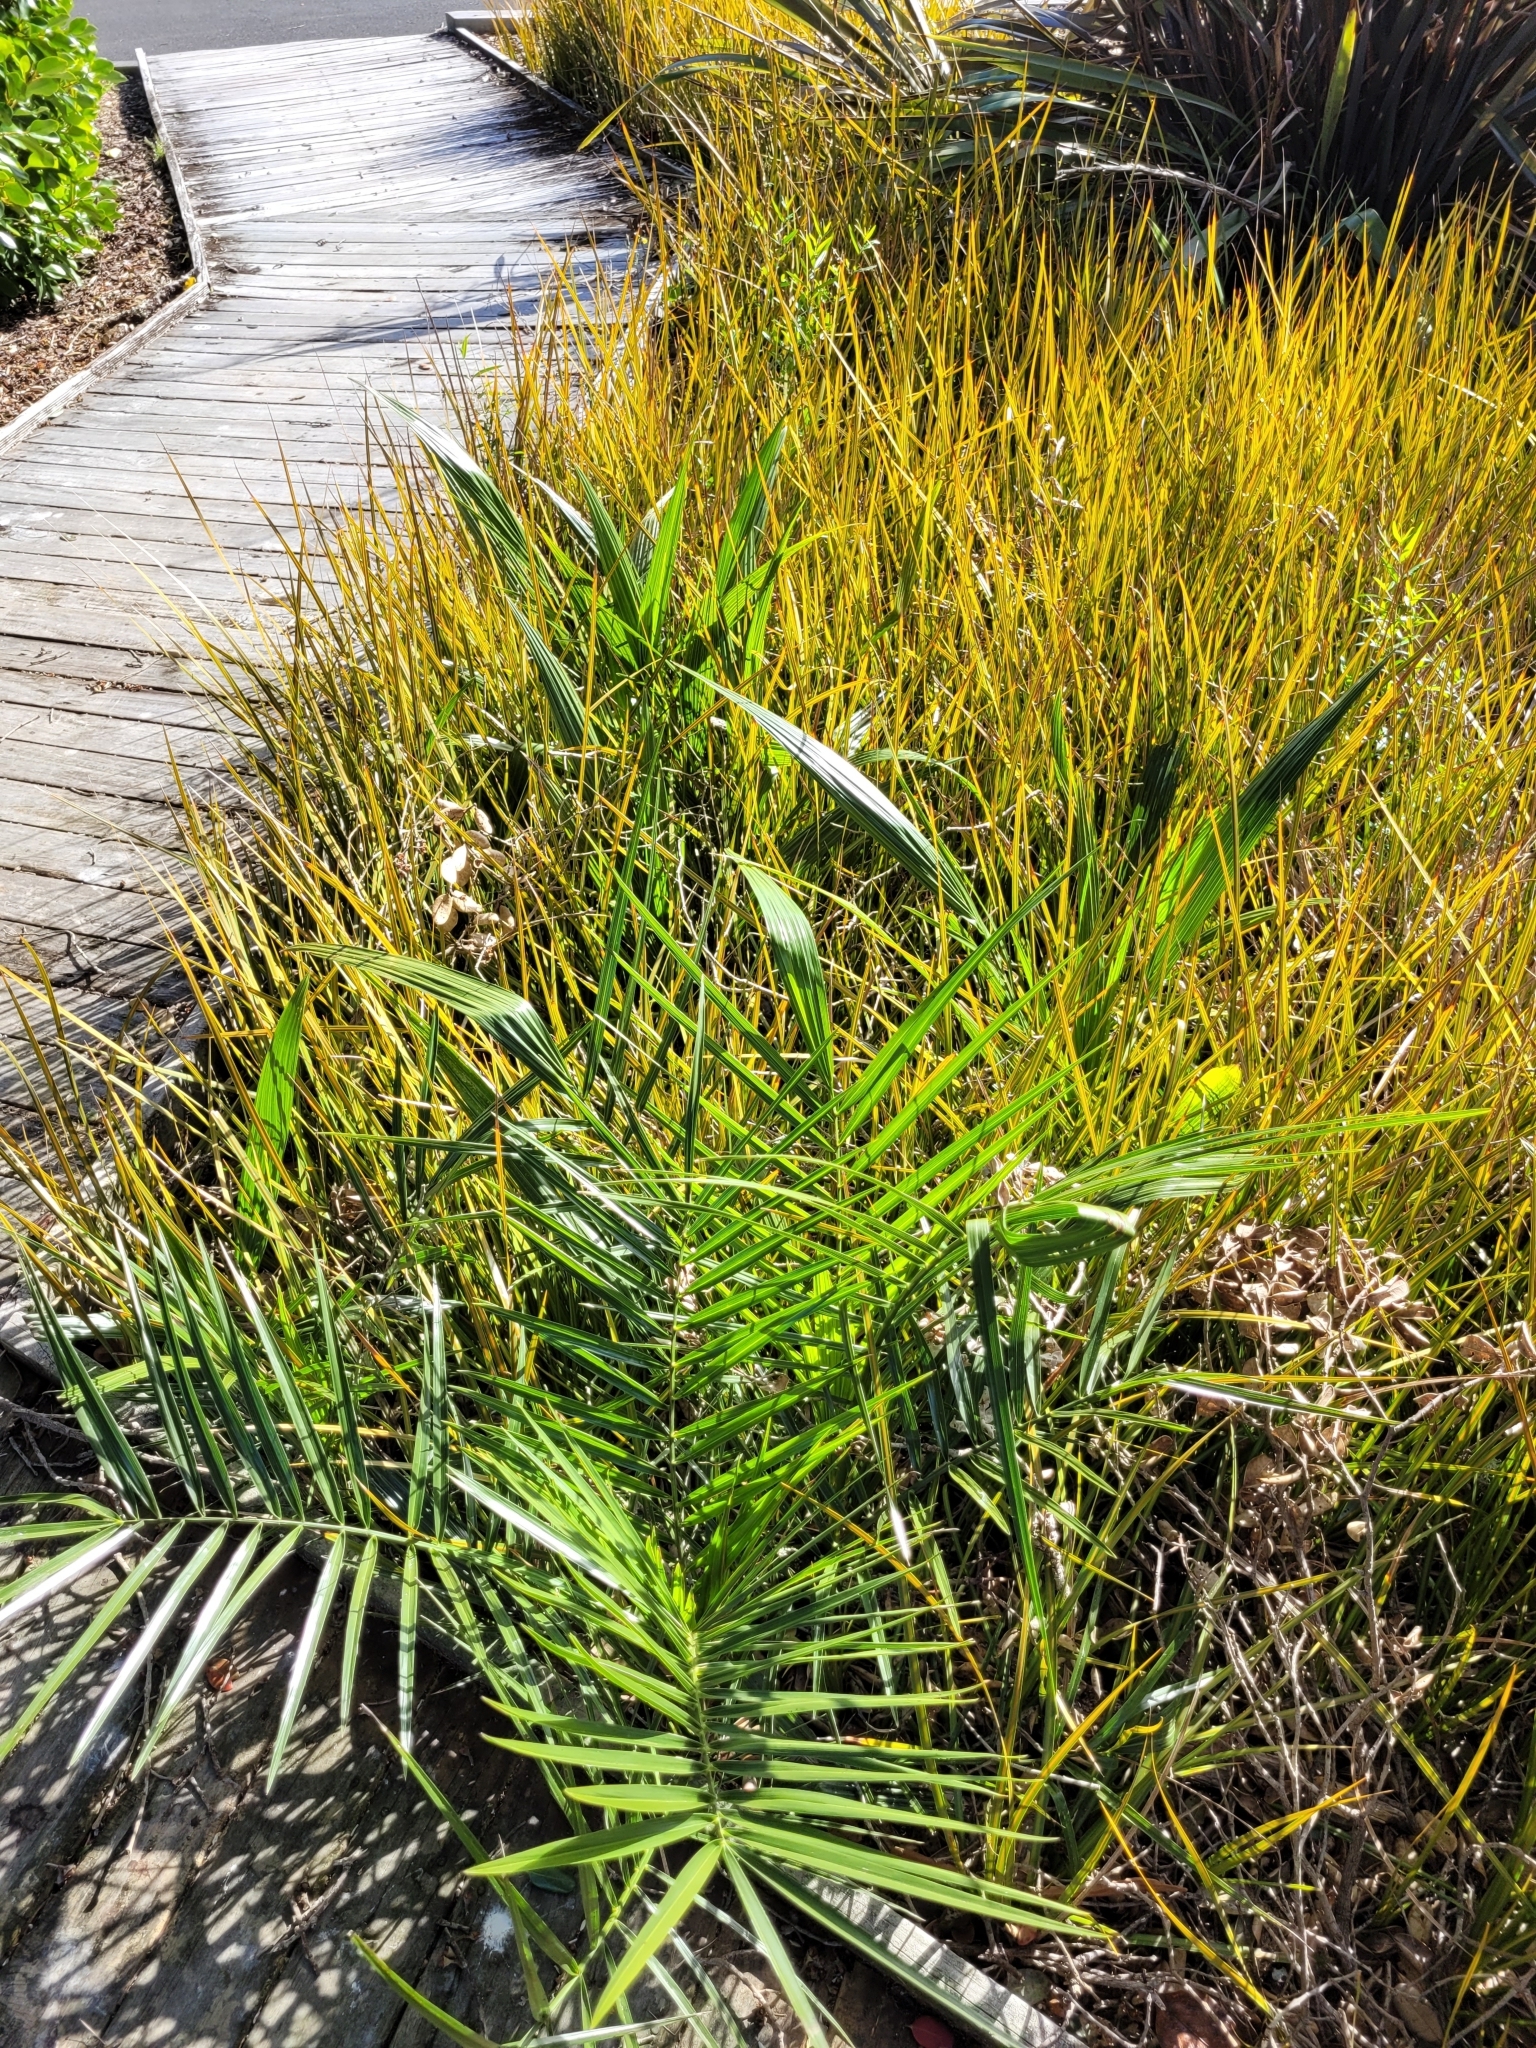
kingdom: Plantae
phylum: Tracheophyta
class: Liliopsida
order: Arecales
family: Arecaceae
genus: Phoenix
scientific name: Phoenix canariensis
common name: Canary island date palm
